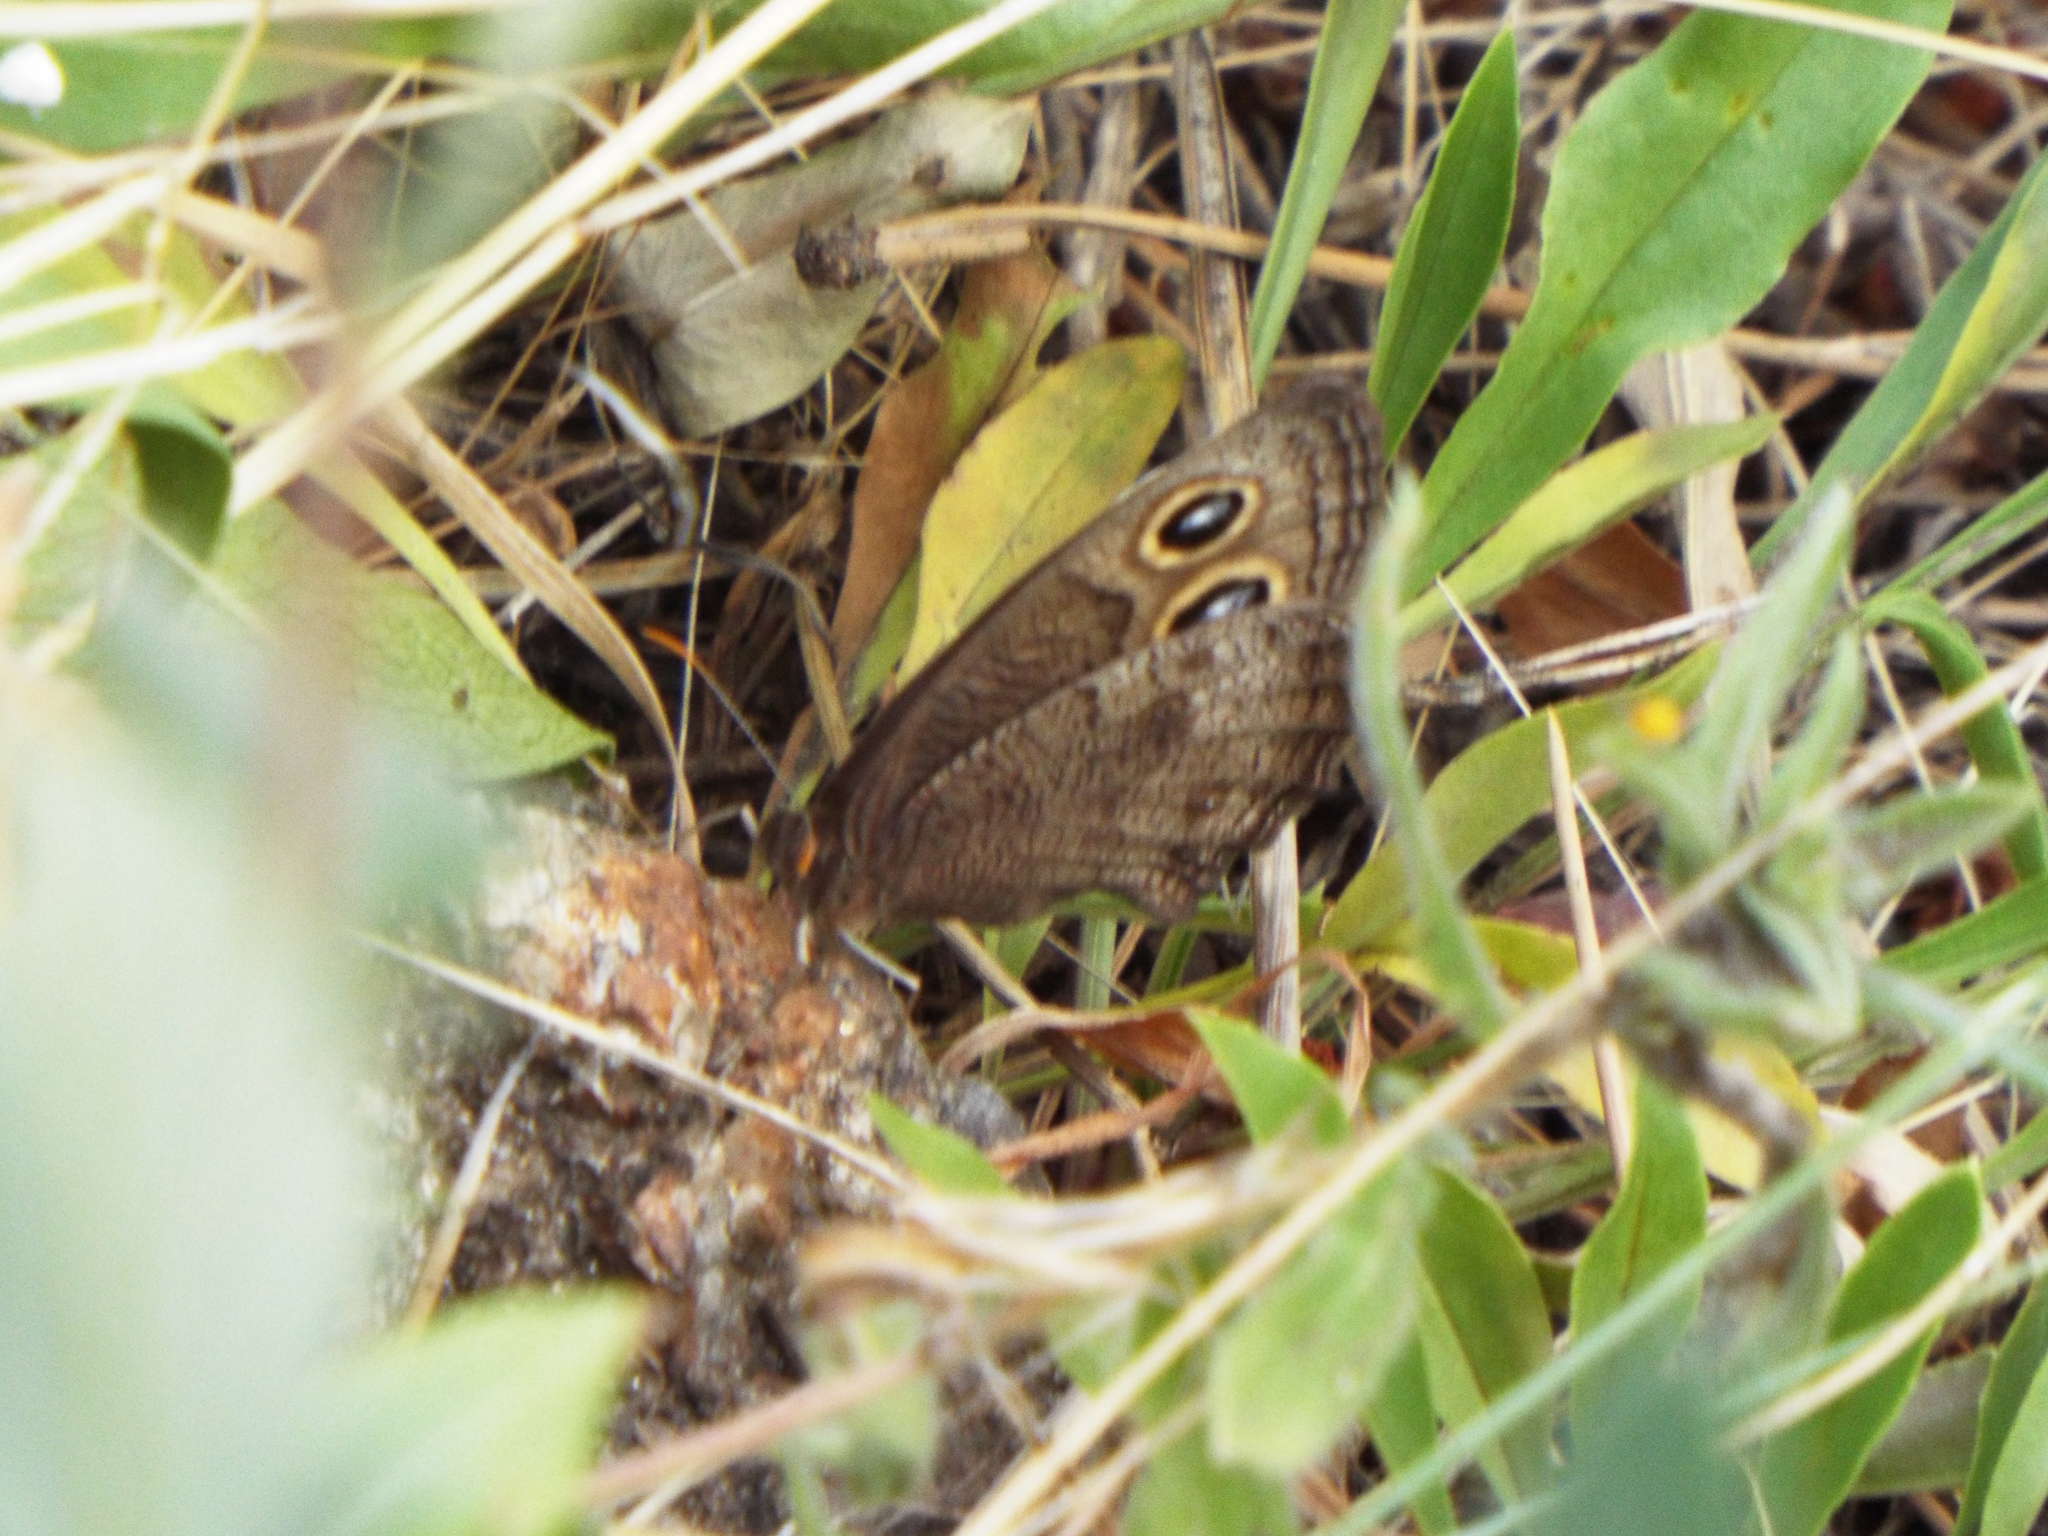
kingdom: Animalia
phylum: Arthropoda
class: Insecta
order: Lepidoptera
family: Nymphalidae
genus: Cercyonis
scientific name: Cercyonis pegala
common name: Common wood-nymph
